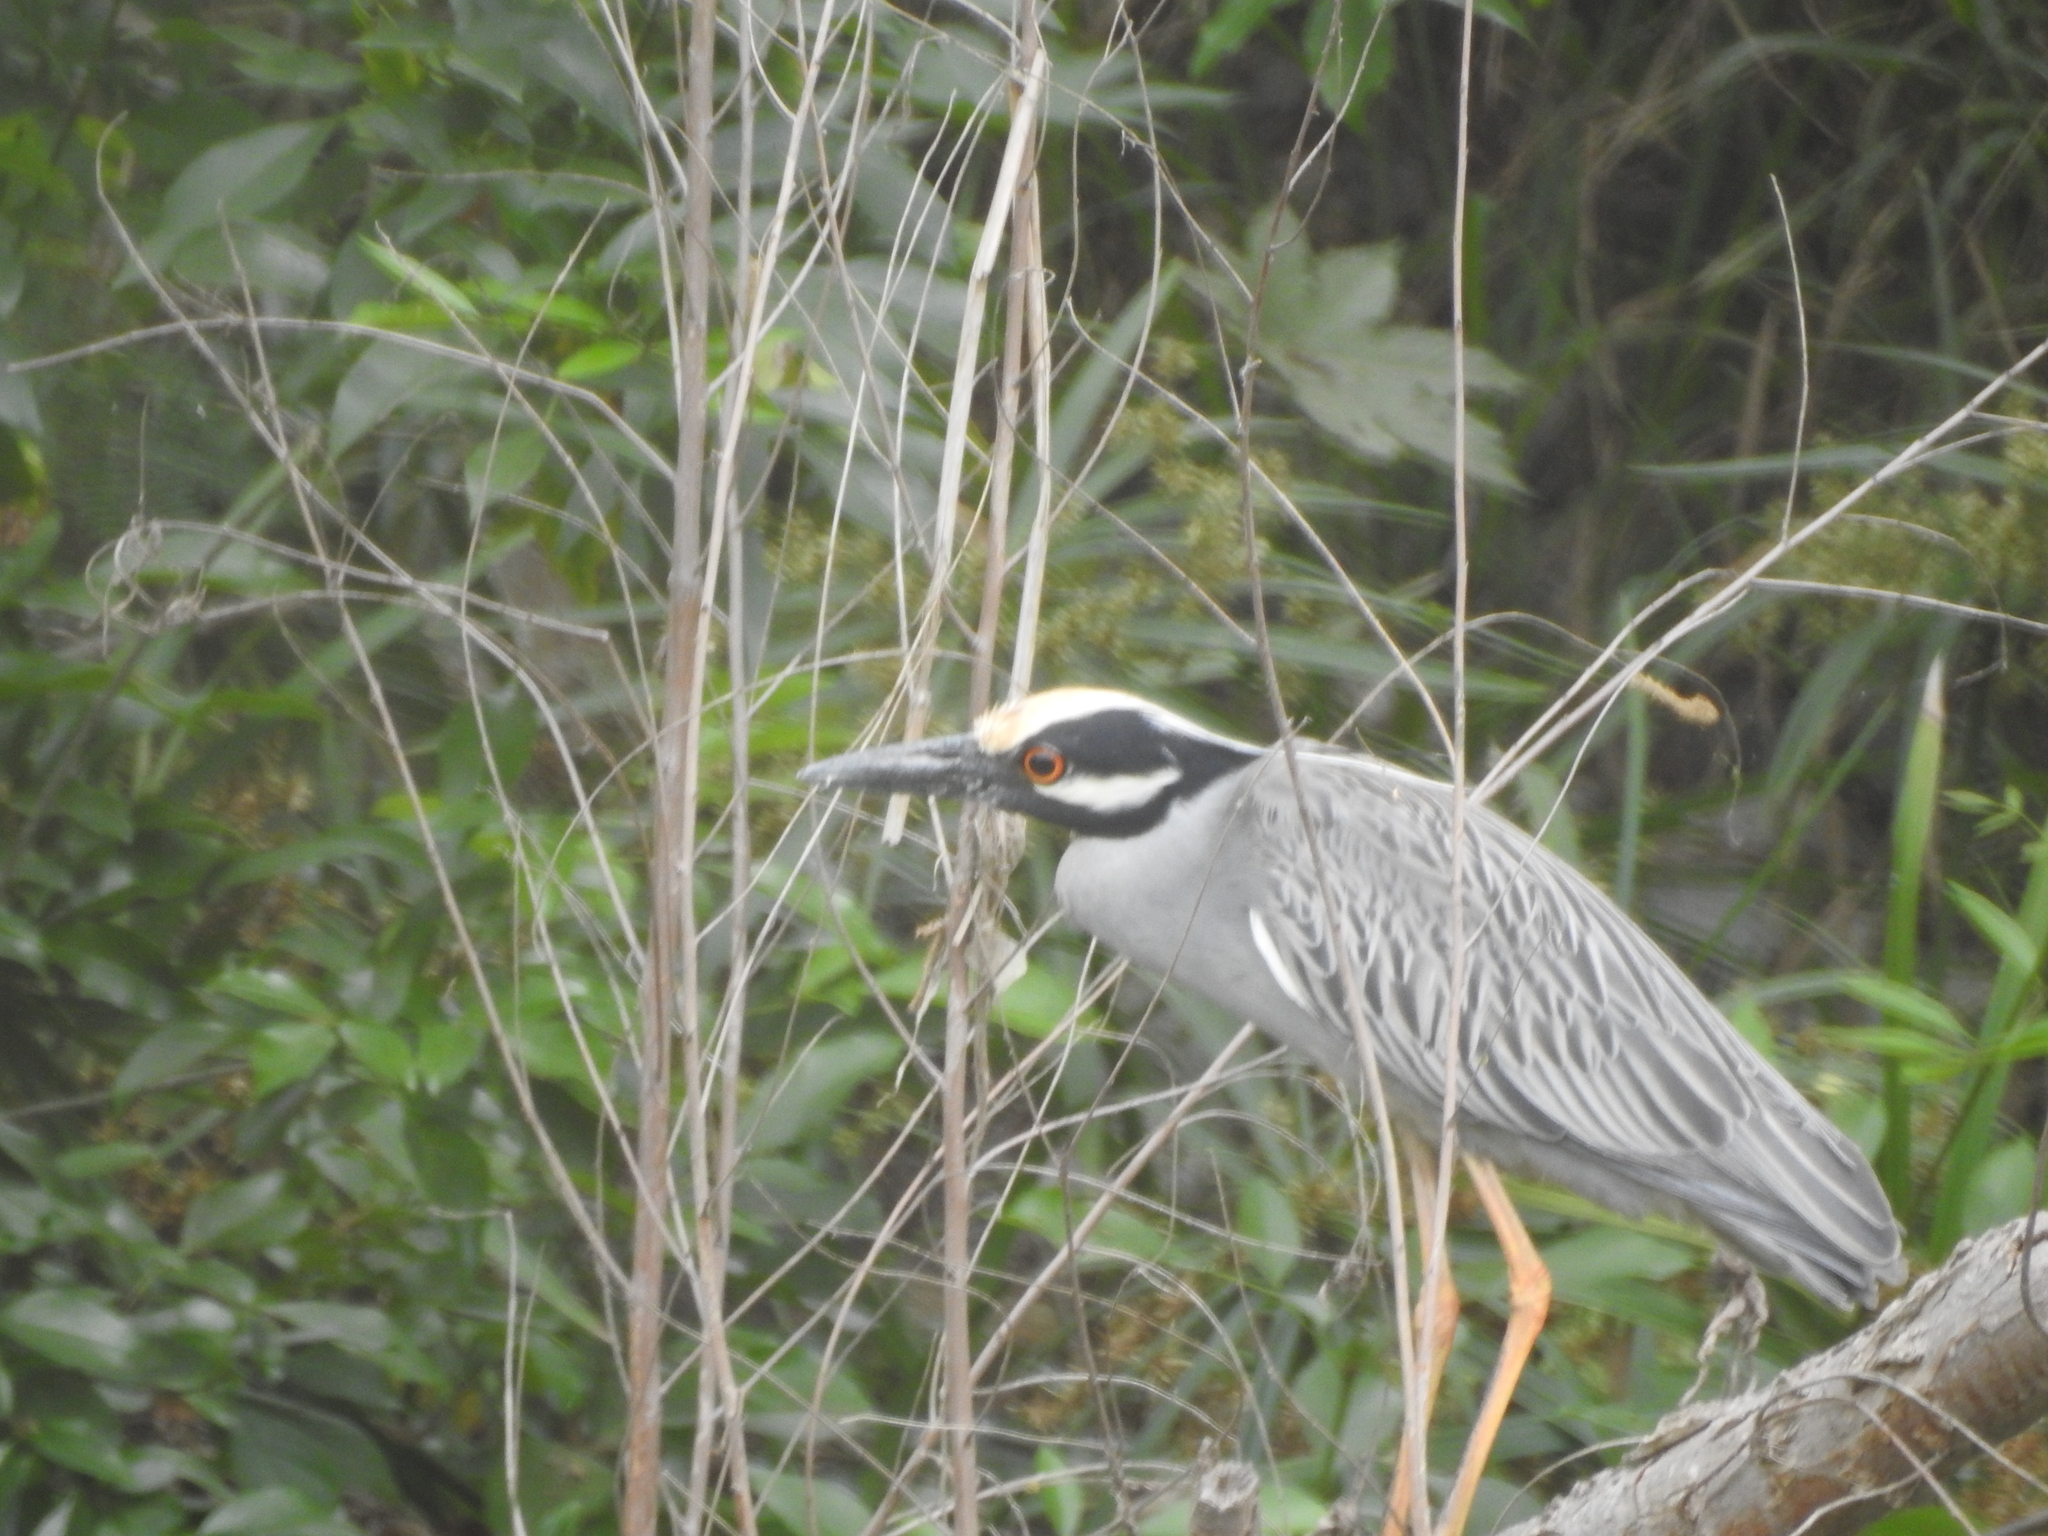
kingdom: Animalia
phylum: Chordata
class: Aves
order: Pelecaniformes
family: Ardeidae
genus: Nyctanassa
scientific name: Nyctanassa violacea
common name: Yellow-crowned night heron
